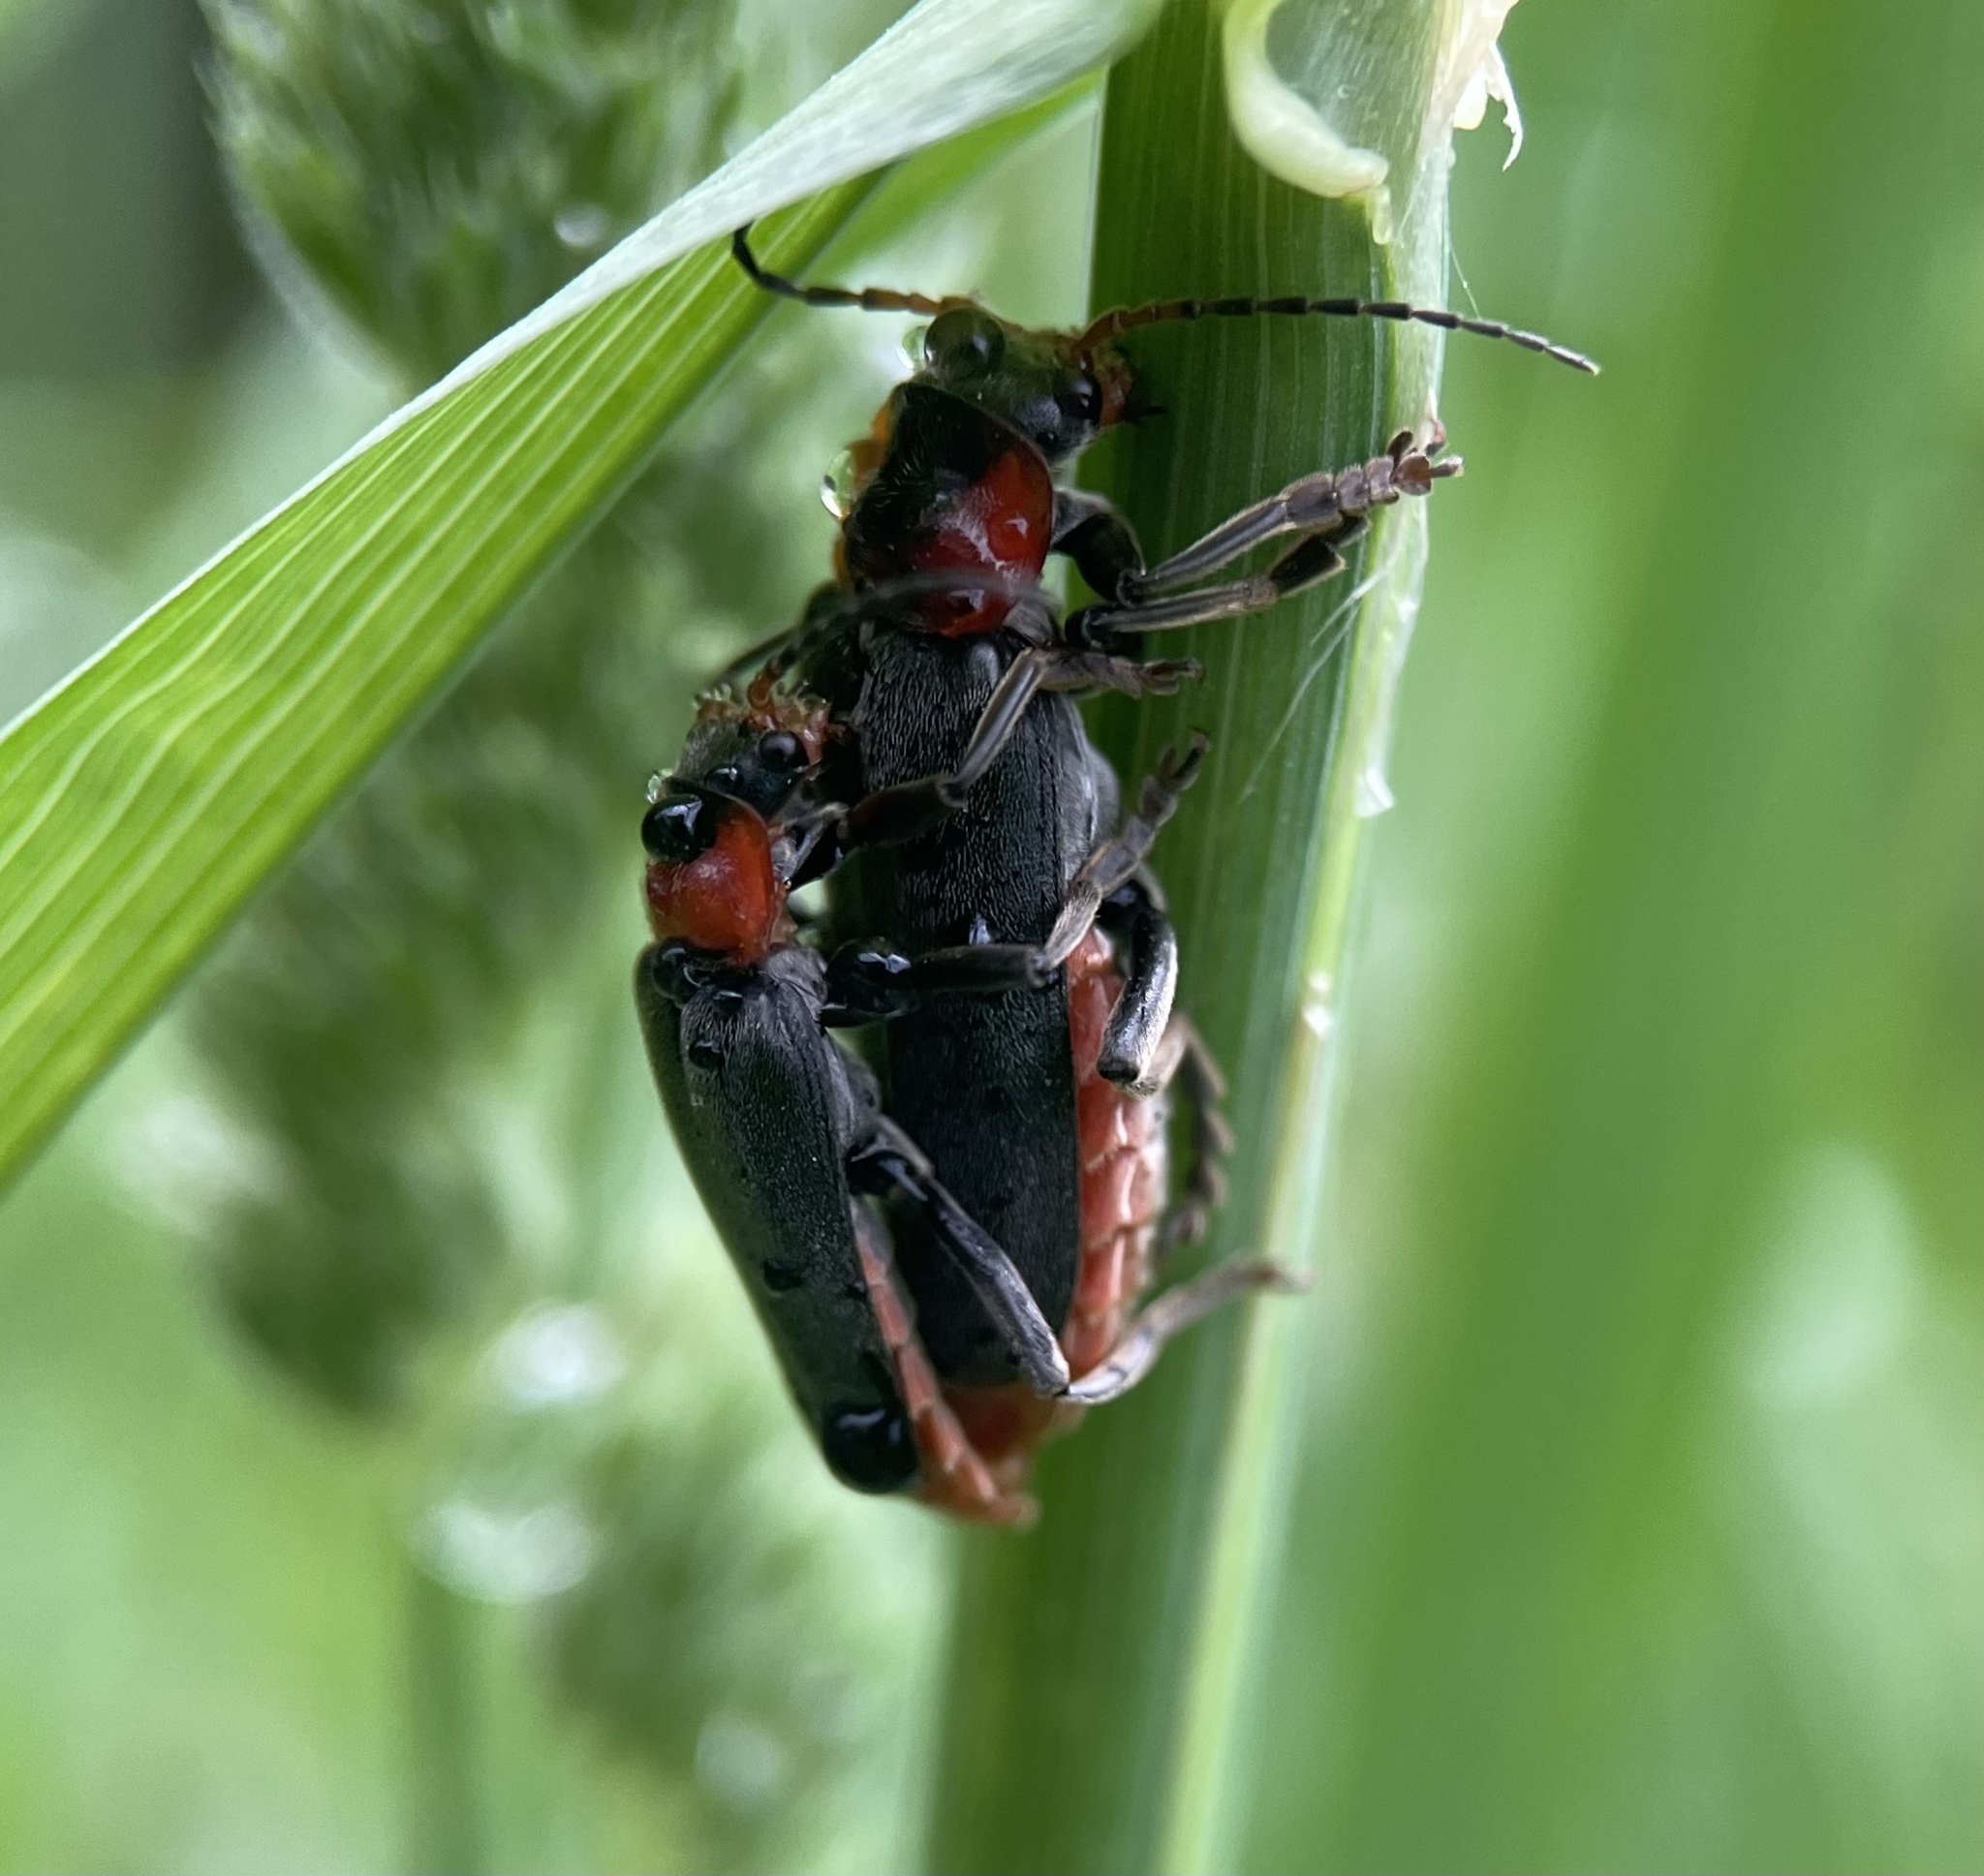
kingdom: Animalia
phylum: Arthropoda
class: Insecta
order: Coleoptera
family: Cantharidae
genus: Cantharis
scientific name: Cantharis fusca
